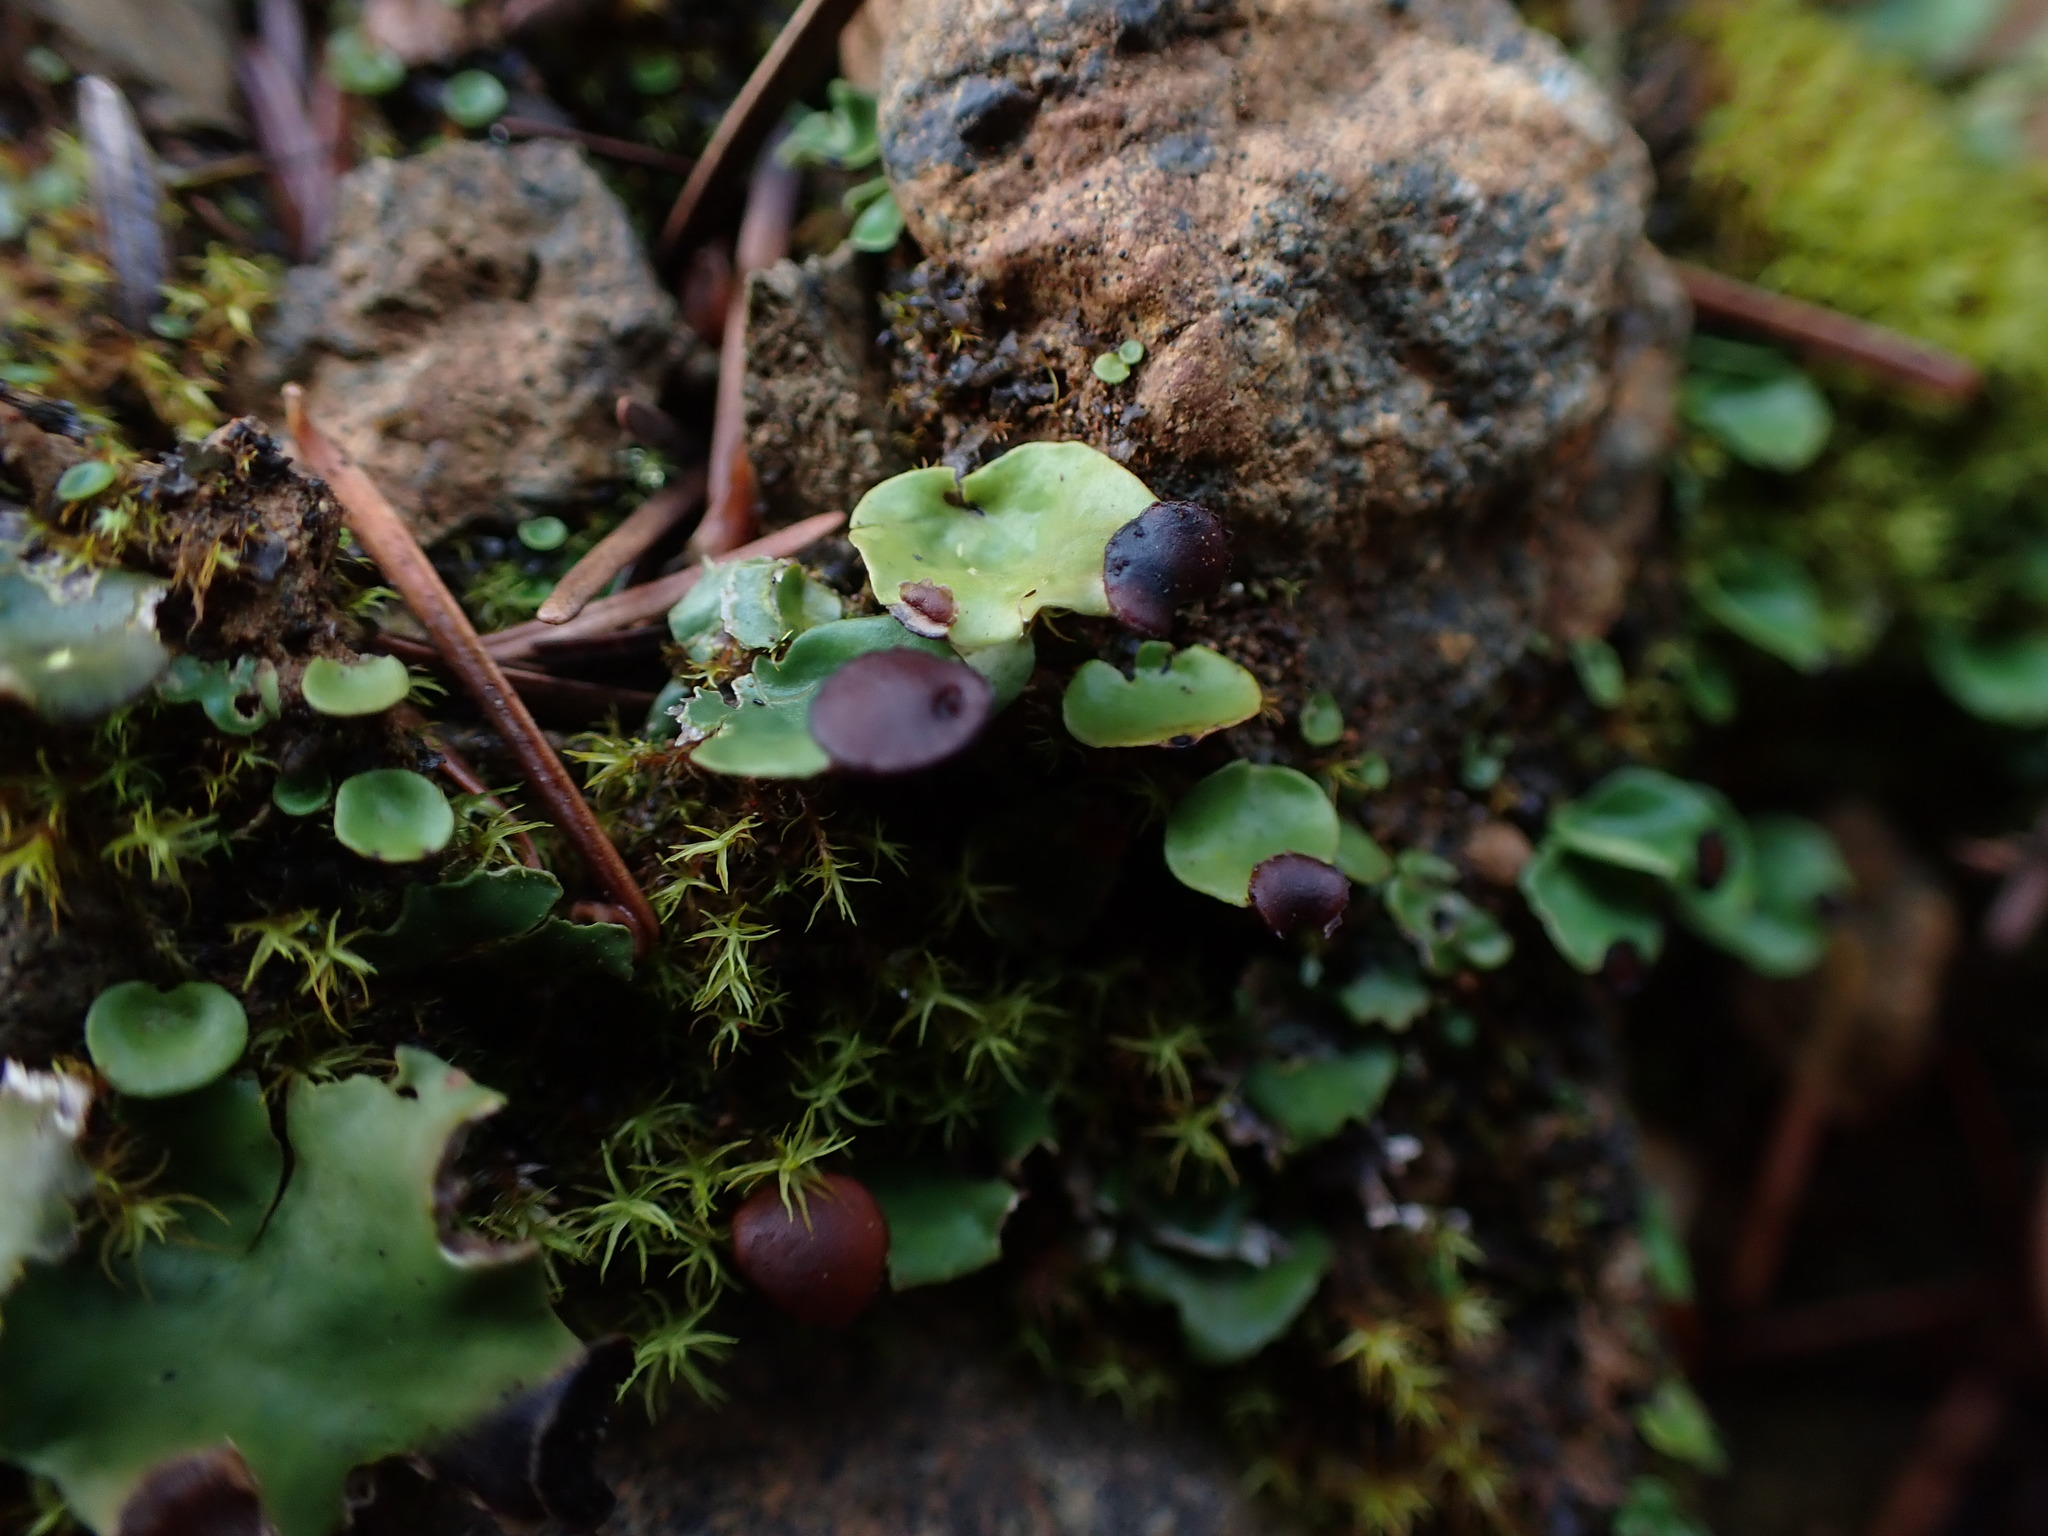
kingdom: Fungi
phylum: Ascomycota
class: Lecanoromycetes
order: Peltigerales
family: Peltigeraceae
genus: Peltigera
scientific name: Peltigera venosa
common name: Pixie gowns lichen
